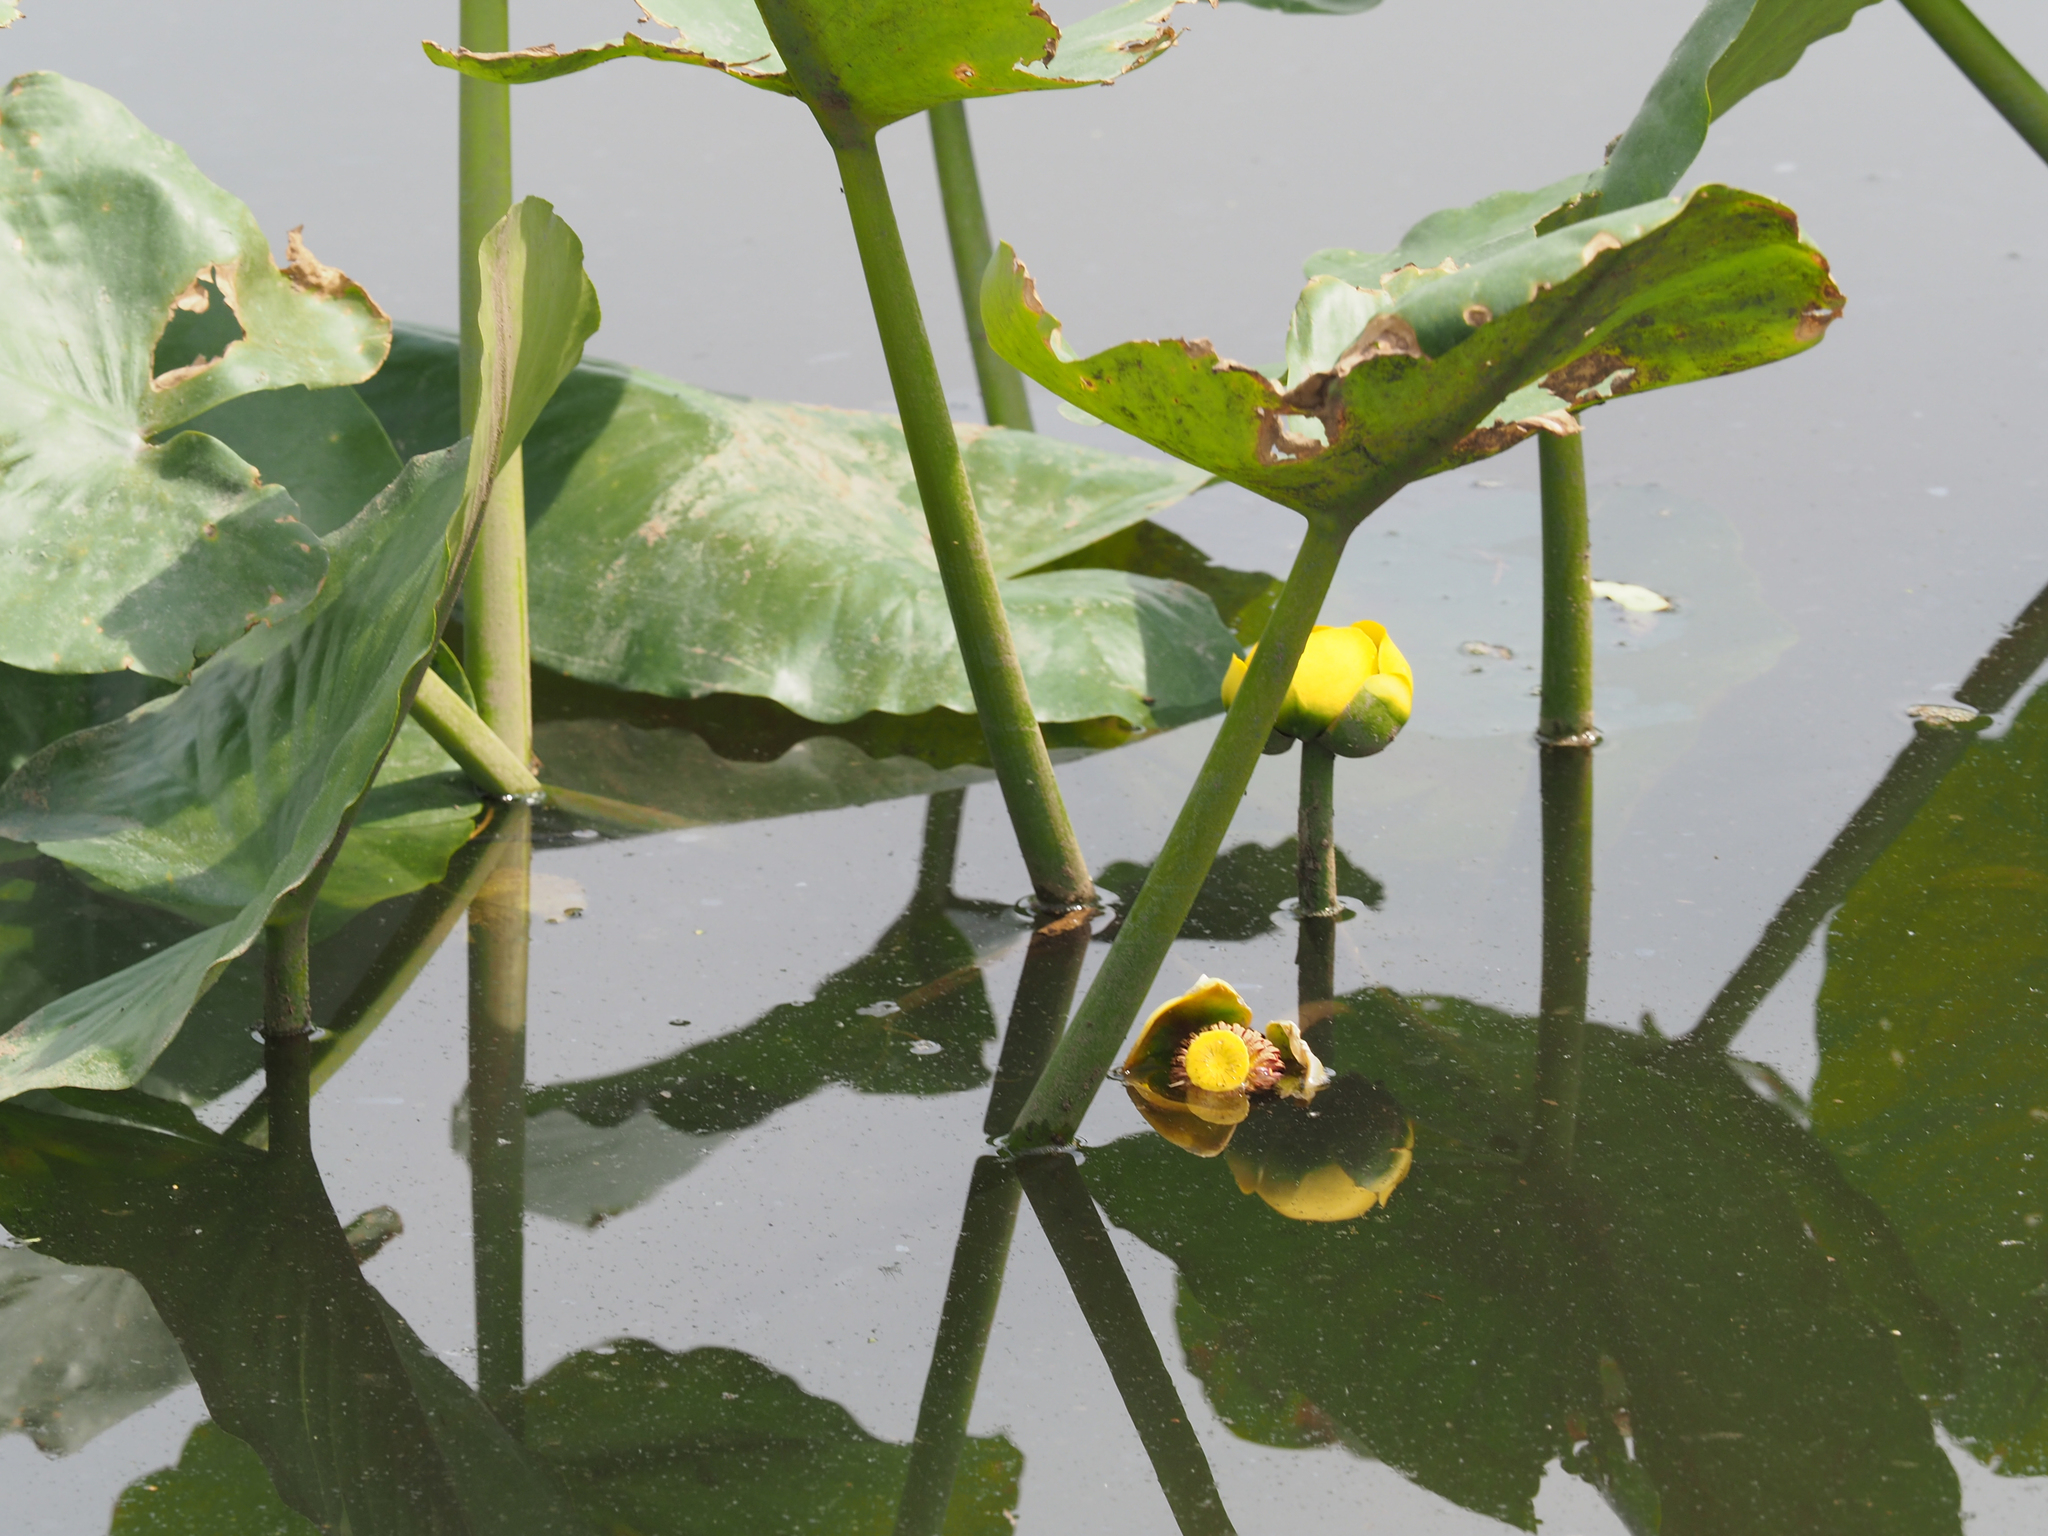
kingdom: Plantae
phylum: Tracheophyta
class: Magnoliopsida
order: Nymphaeales
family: Nymphaeaceae
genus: Nuphar
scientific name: Nuphar advena
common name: Spatter-dock
